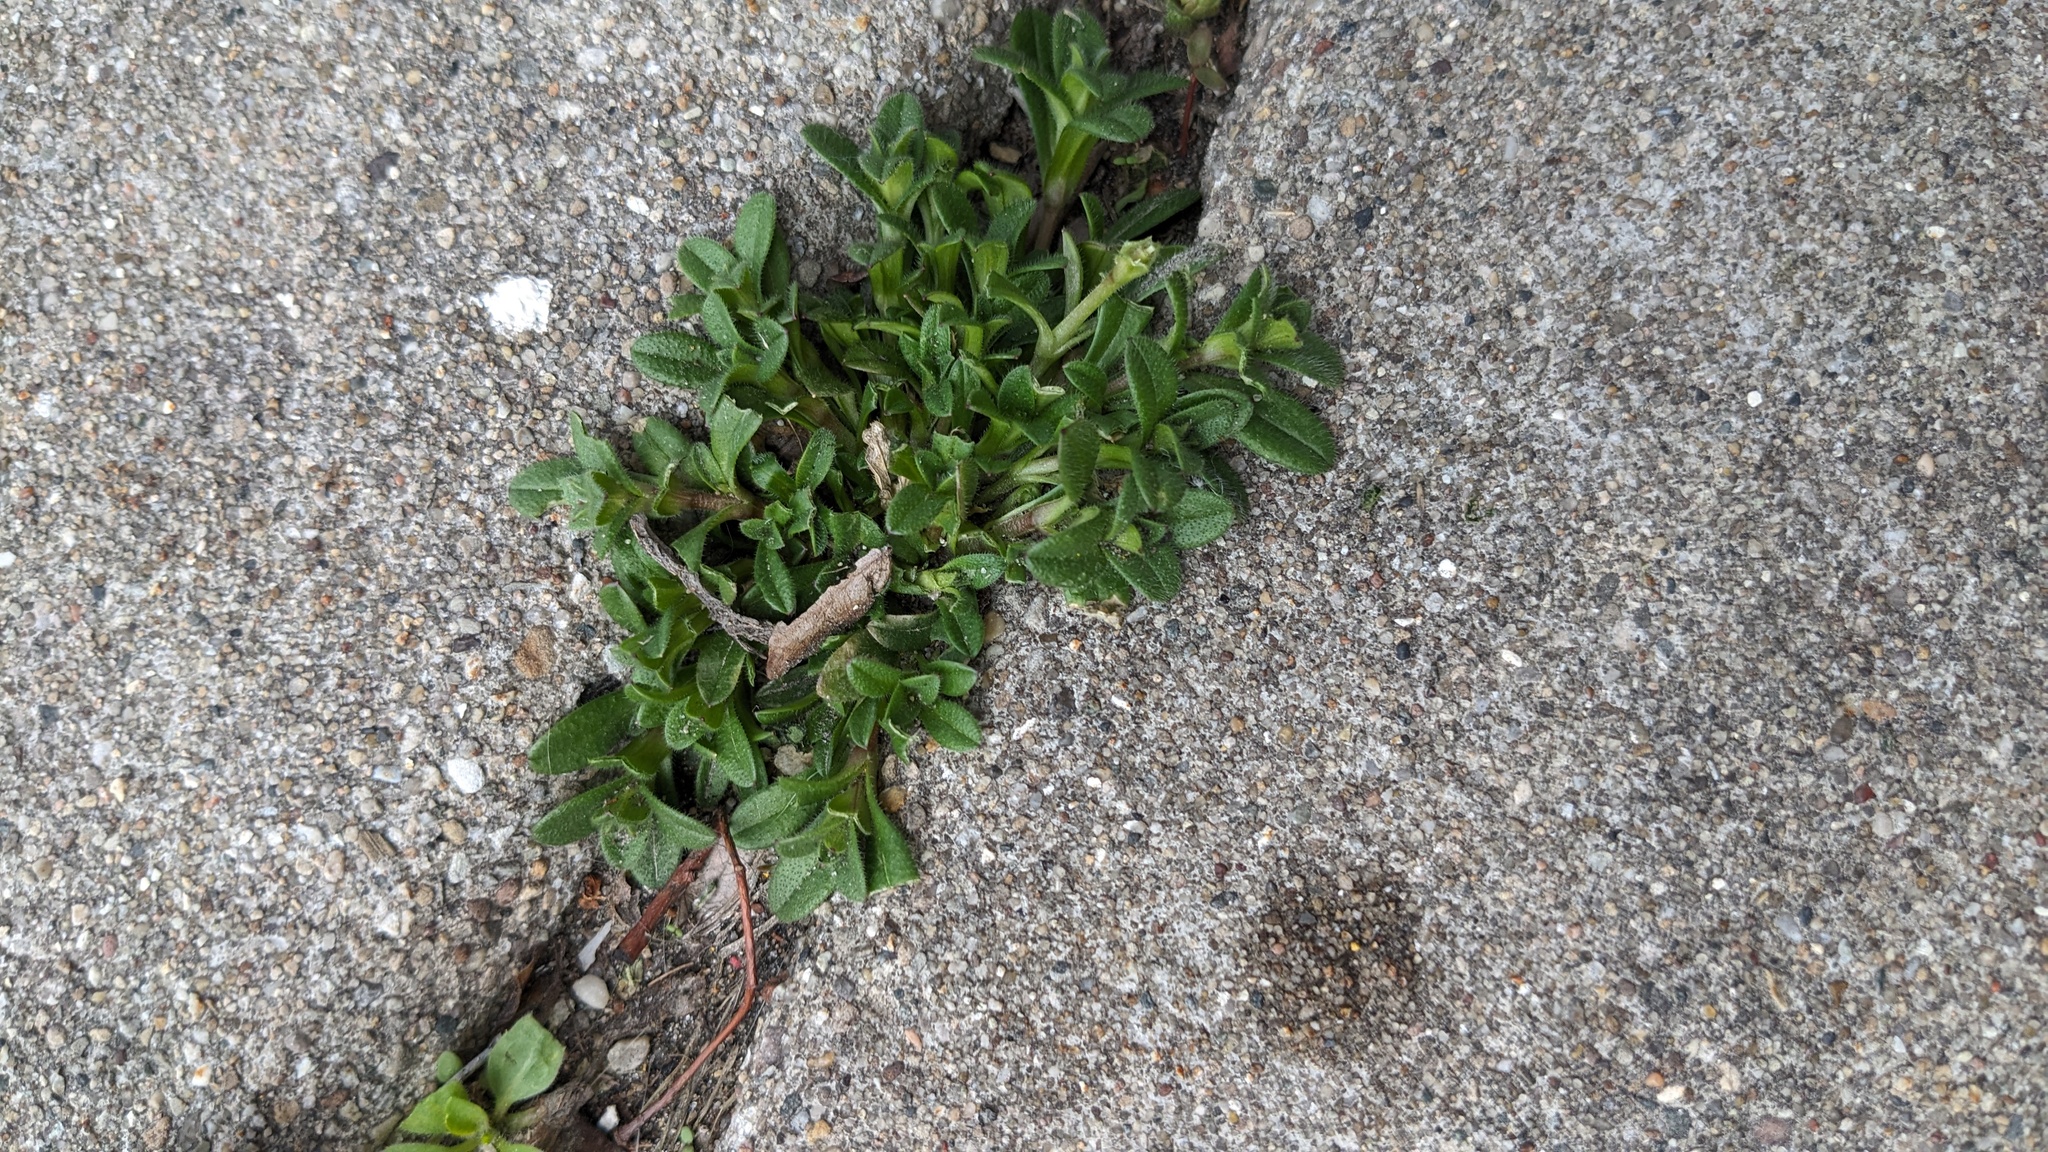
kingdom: Plantae
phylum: Tracheophyta
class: Magnoliopsida
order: Caryophyllales
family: Caryophyllaceae
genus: Cerastium
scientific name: Cerastium fontanum
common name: Common mouse-ear
